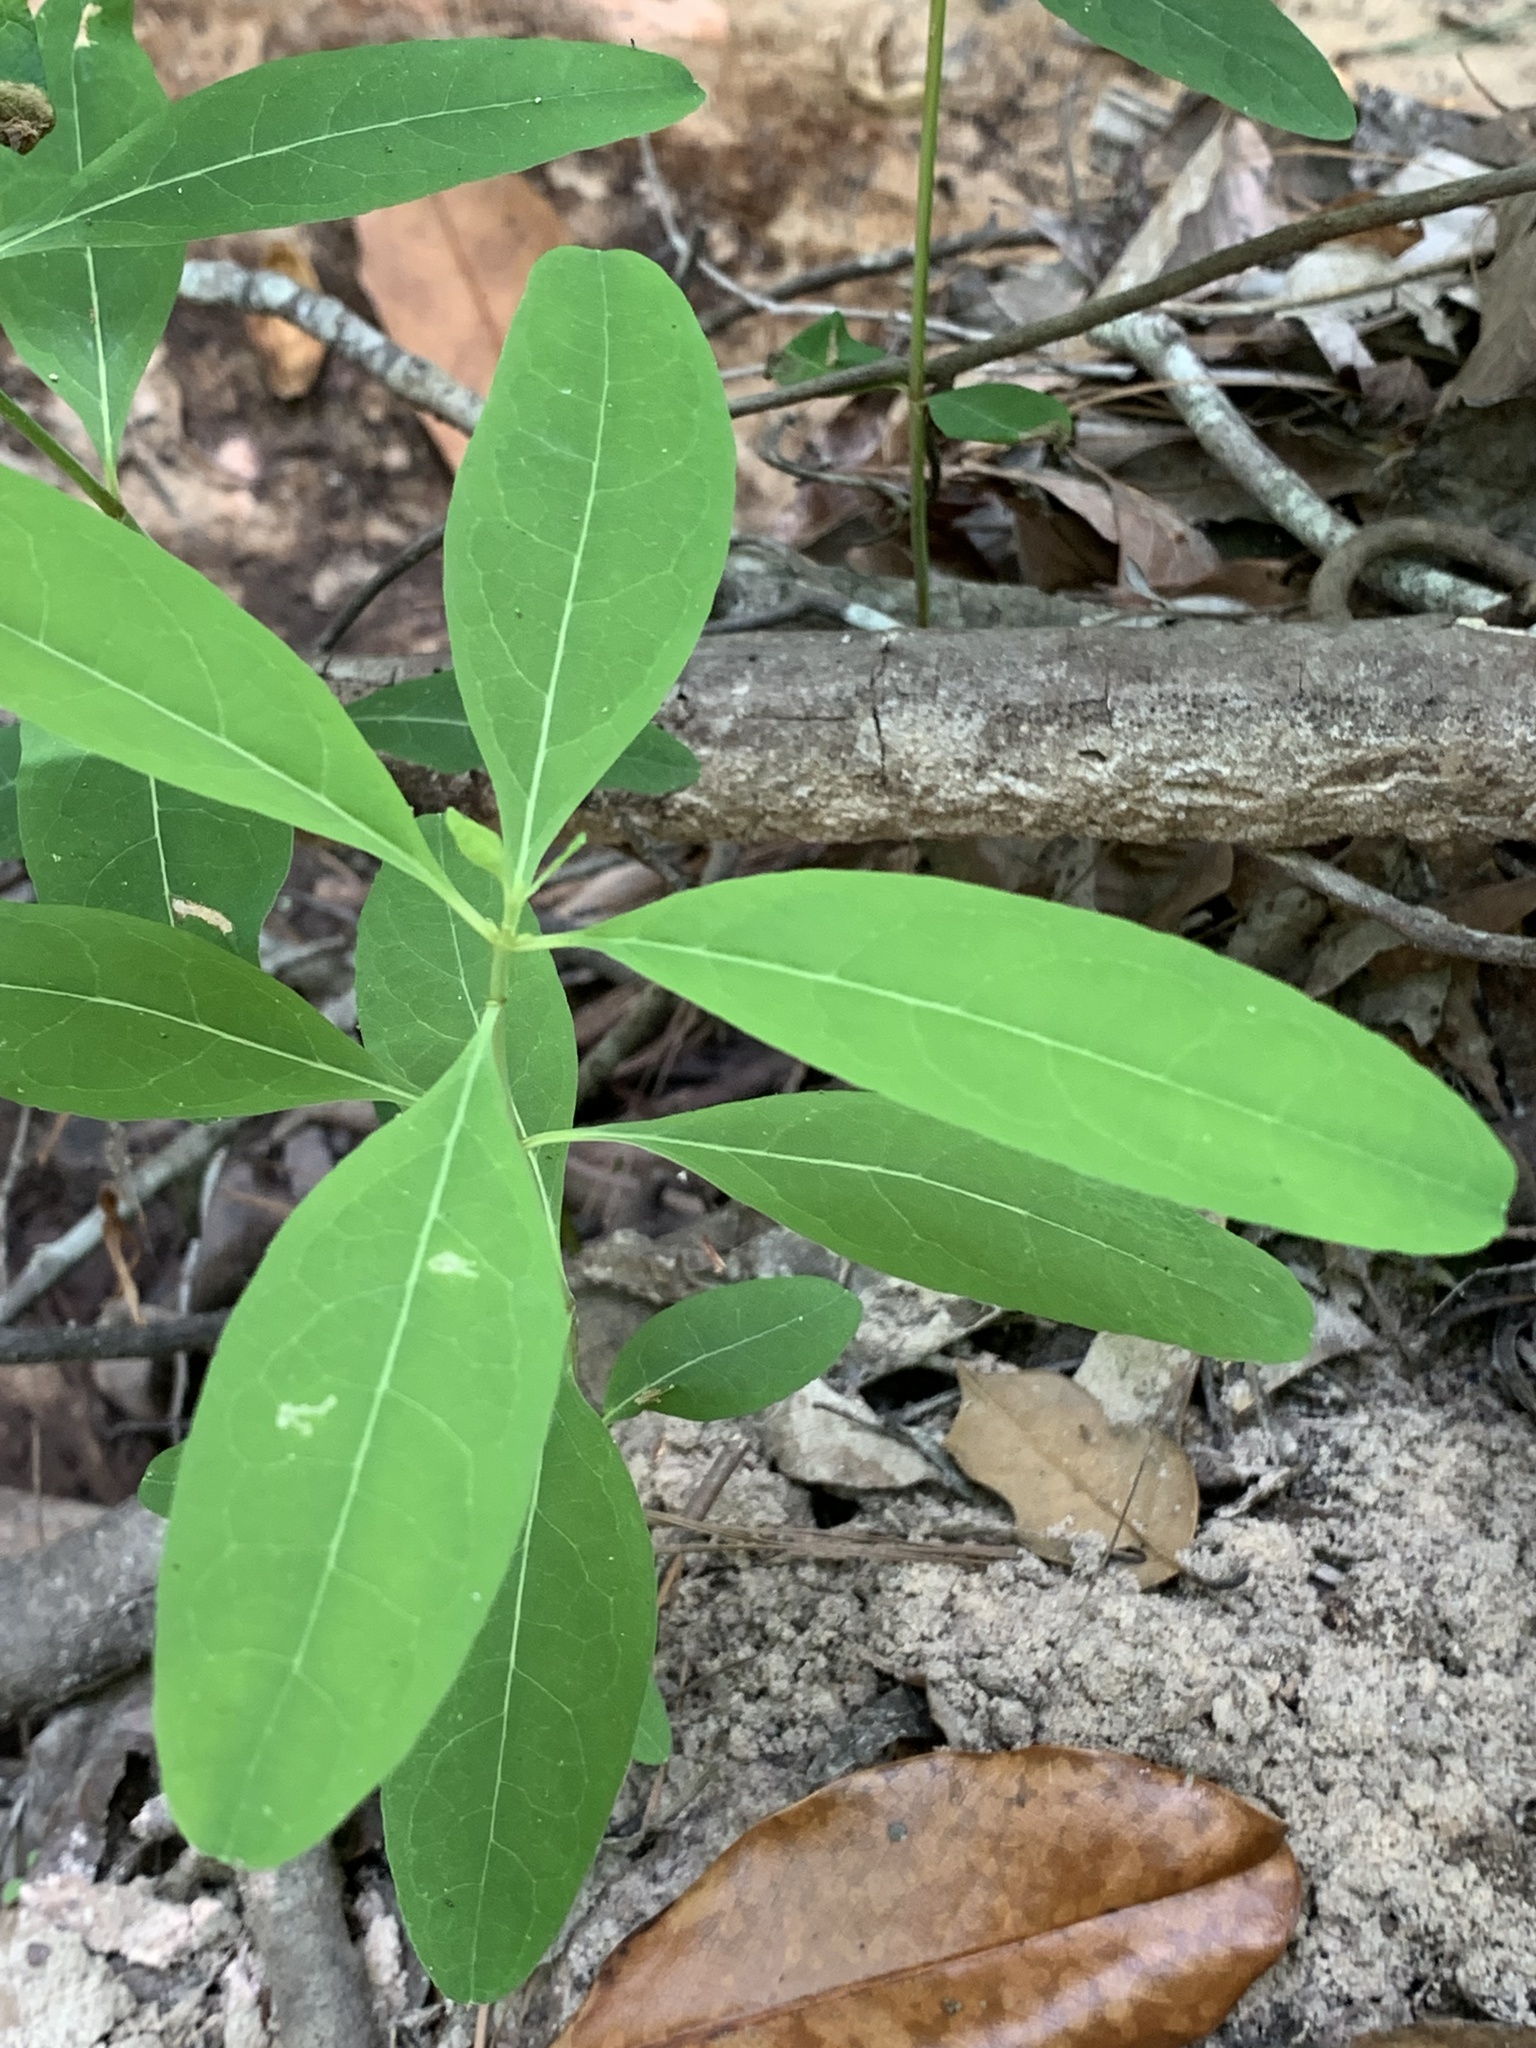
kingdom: Plantae
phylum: Tracheophyta
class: Magnoliopsida
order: Malpighiales
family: Hypericaceae
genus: Triadenum
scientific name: Triadenum walteri
